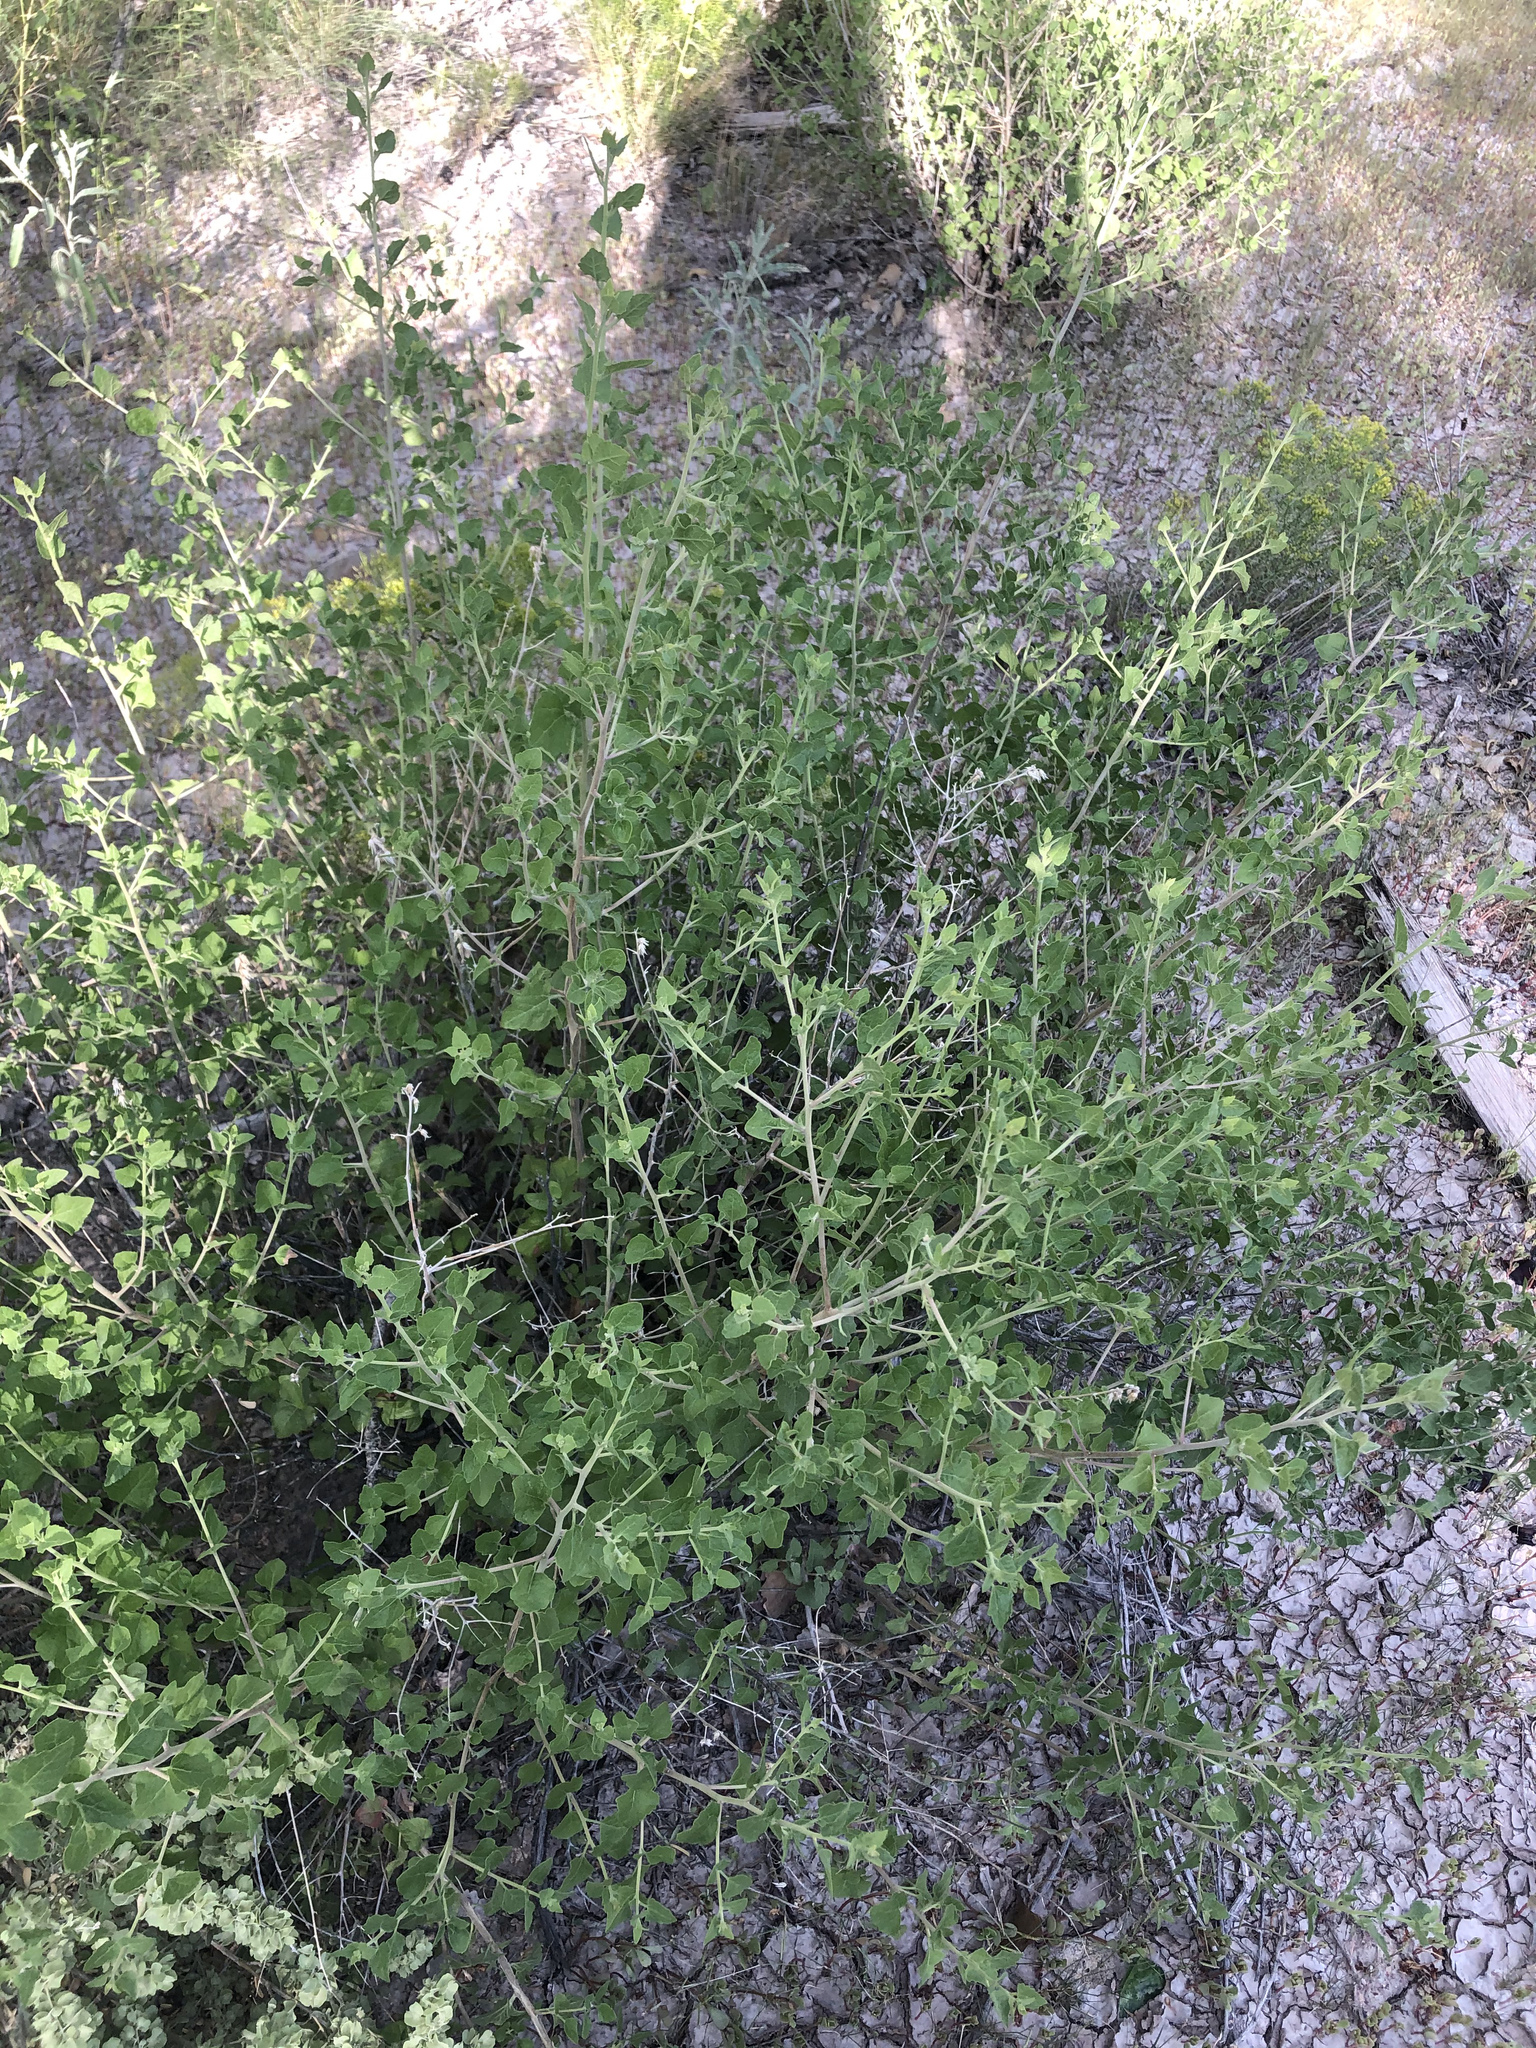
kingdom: Plantae
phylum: Tracheophyta
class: Magnoliopsida
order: Asterales
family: Asteraceae
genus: Brickellia
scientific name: Brickellia californica
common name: California brickellbush
